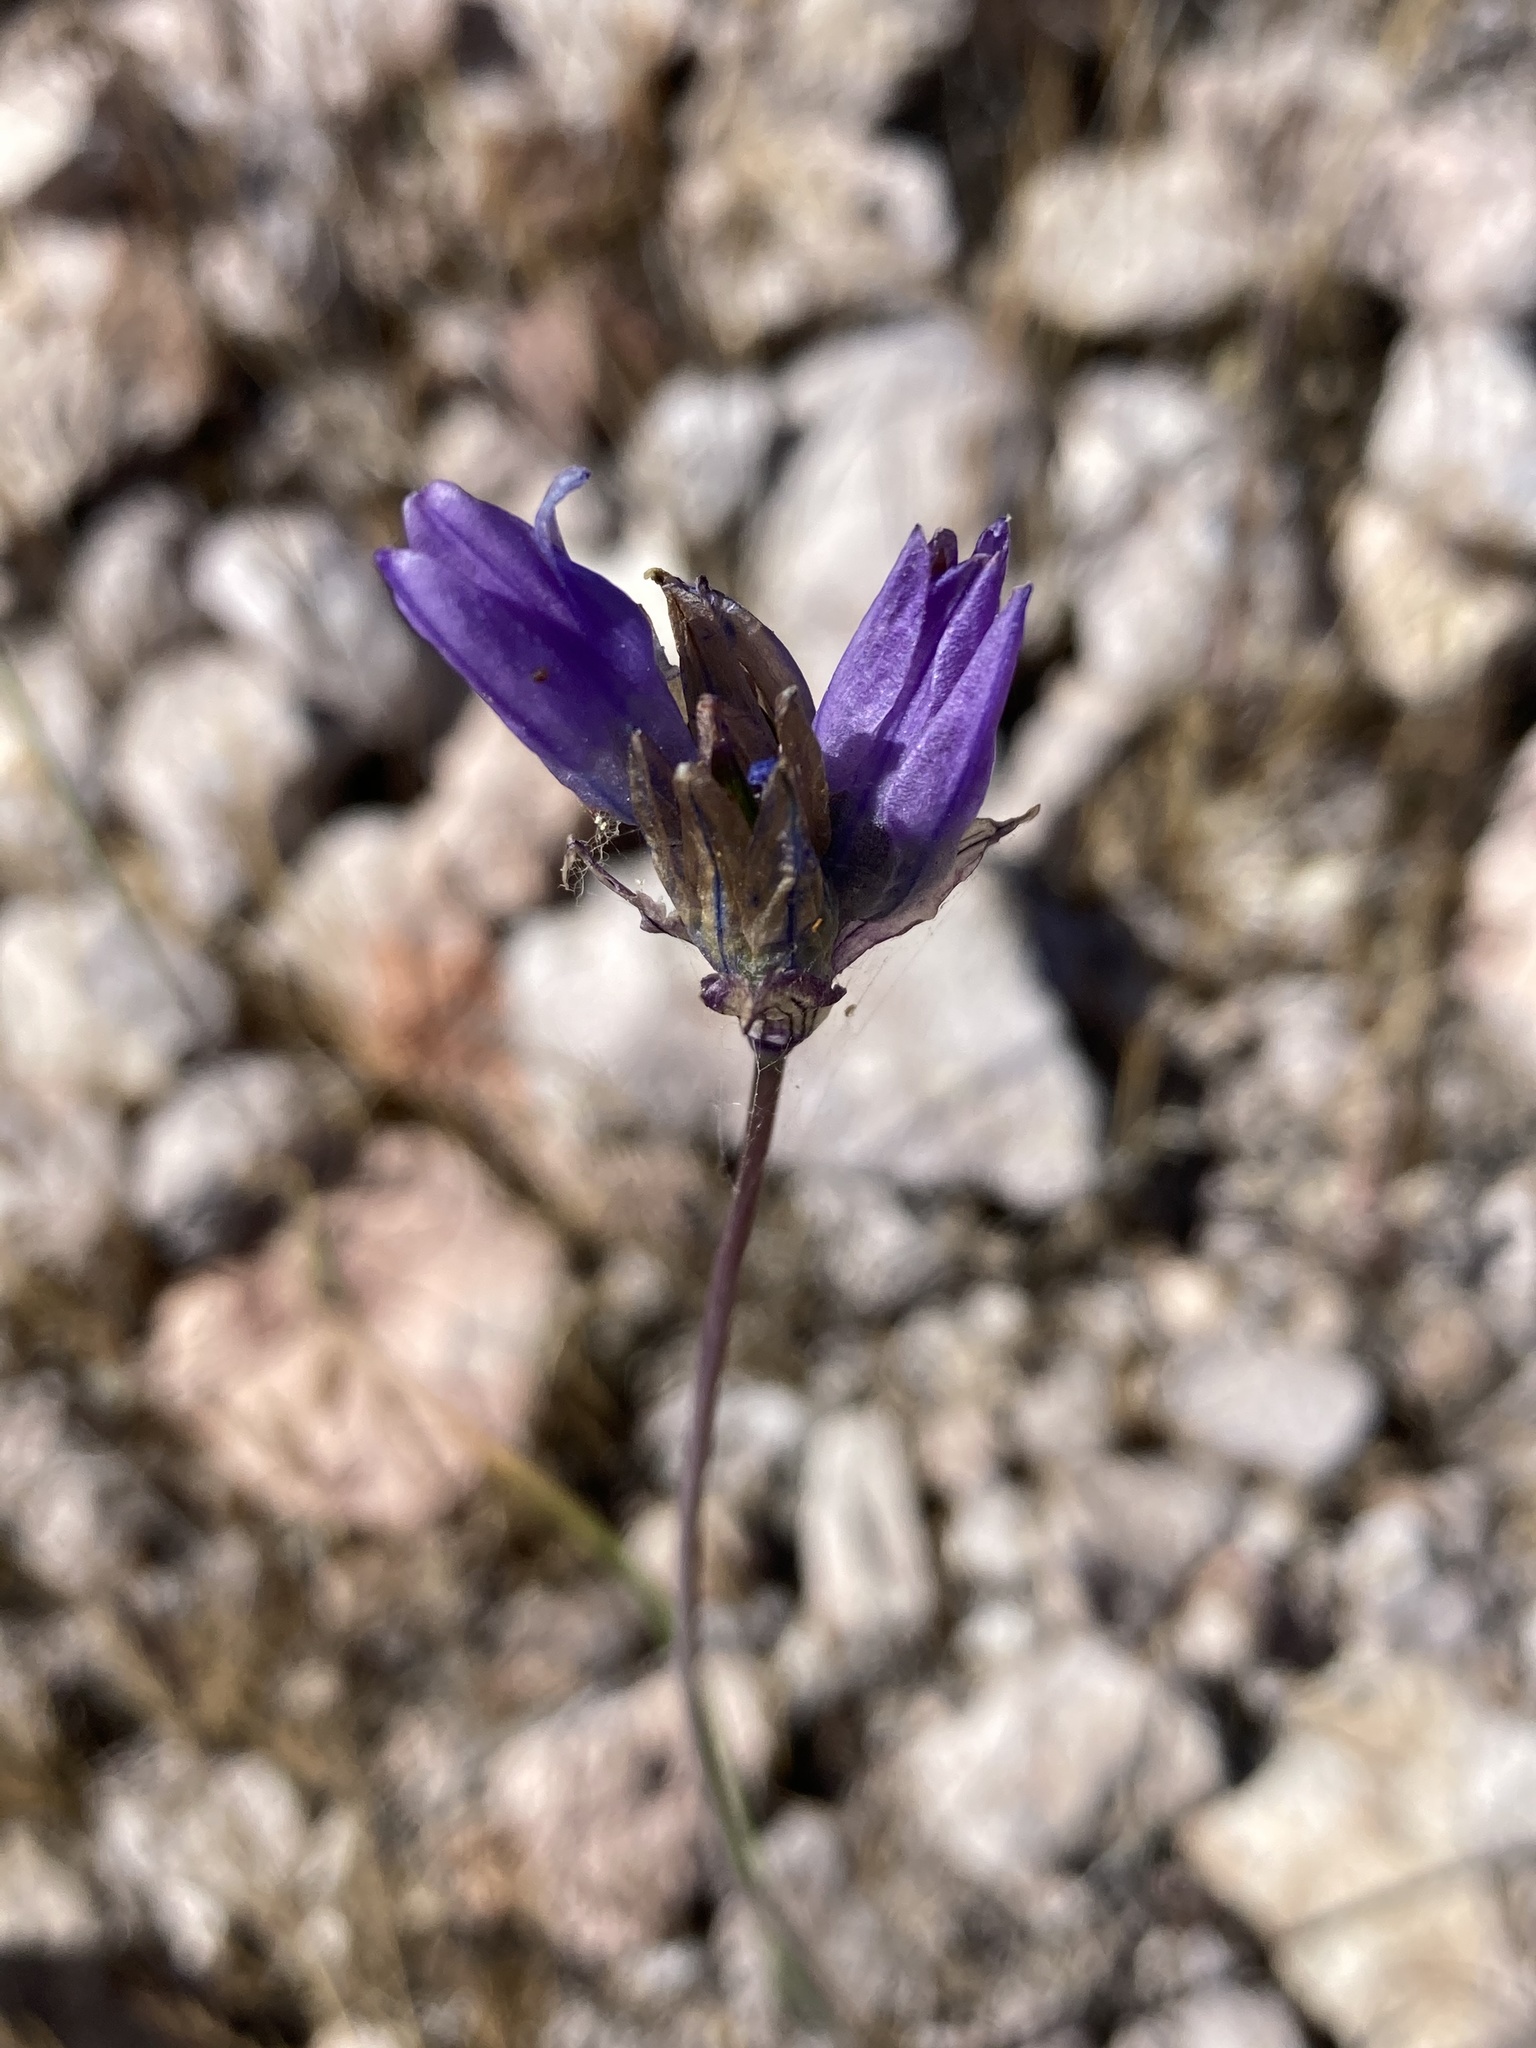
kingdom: Plantae
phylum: Tracheophyta
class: Liliopsida
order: Asparagales
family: Asparagaceae
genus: Dipterostemon
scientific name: Dipterostemon capitatus
